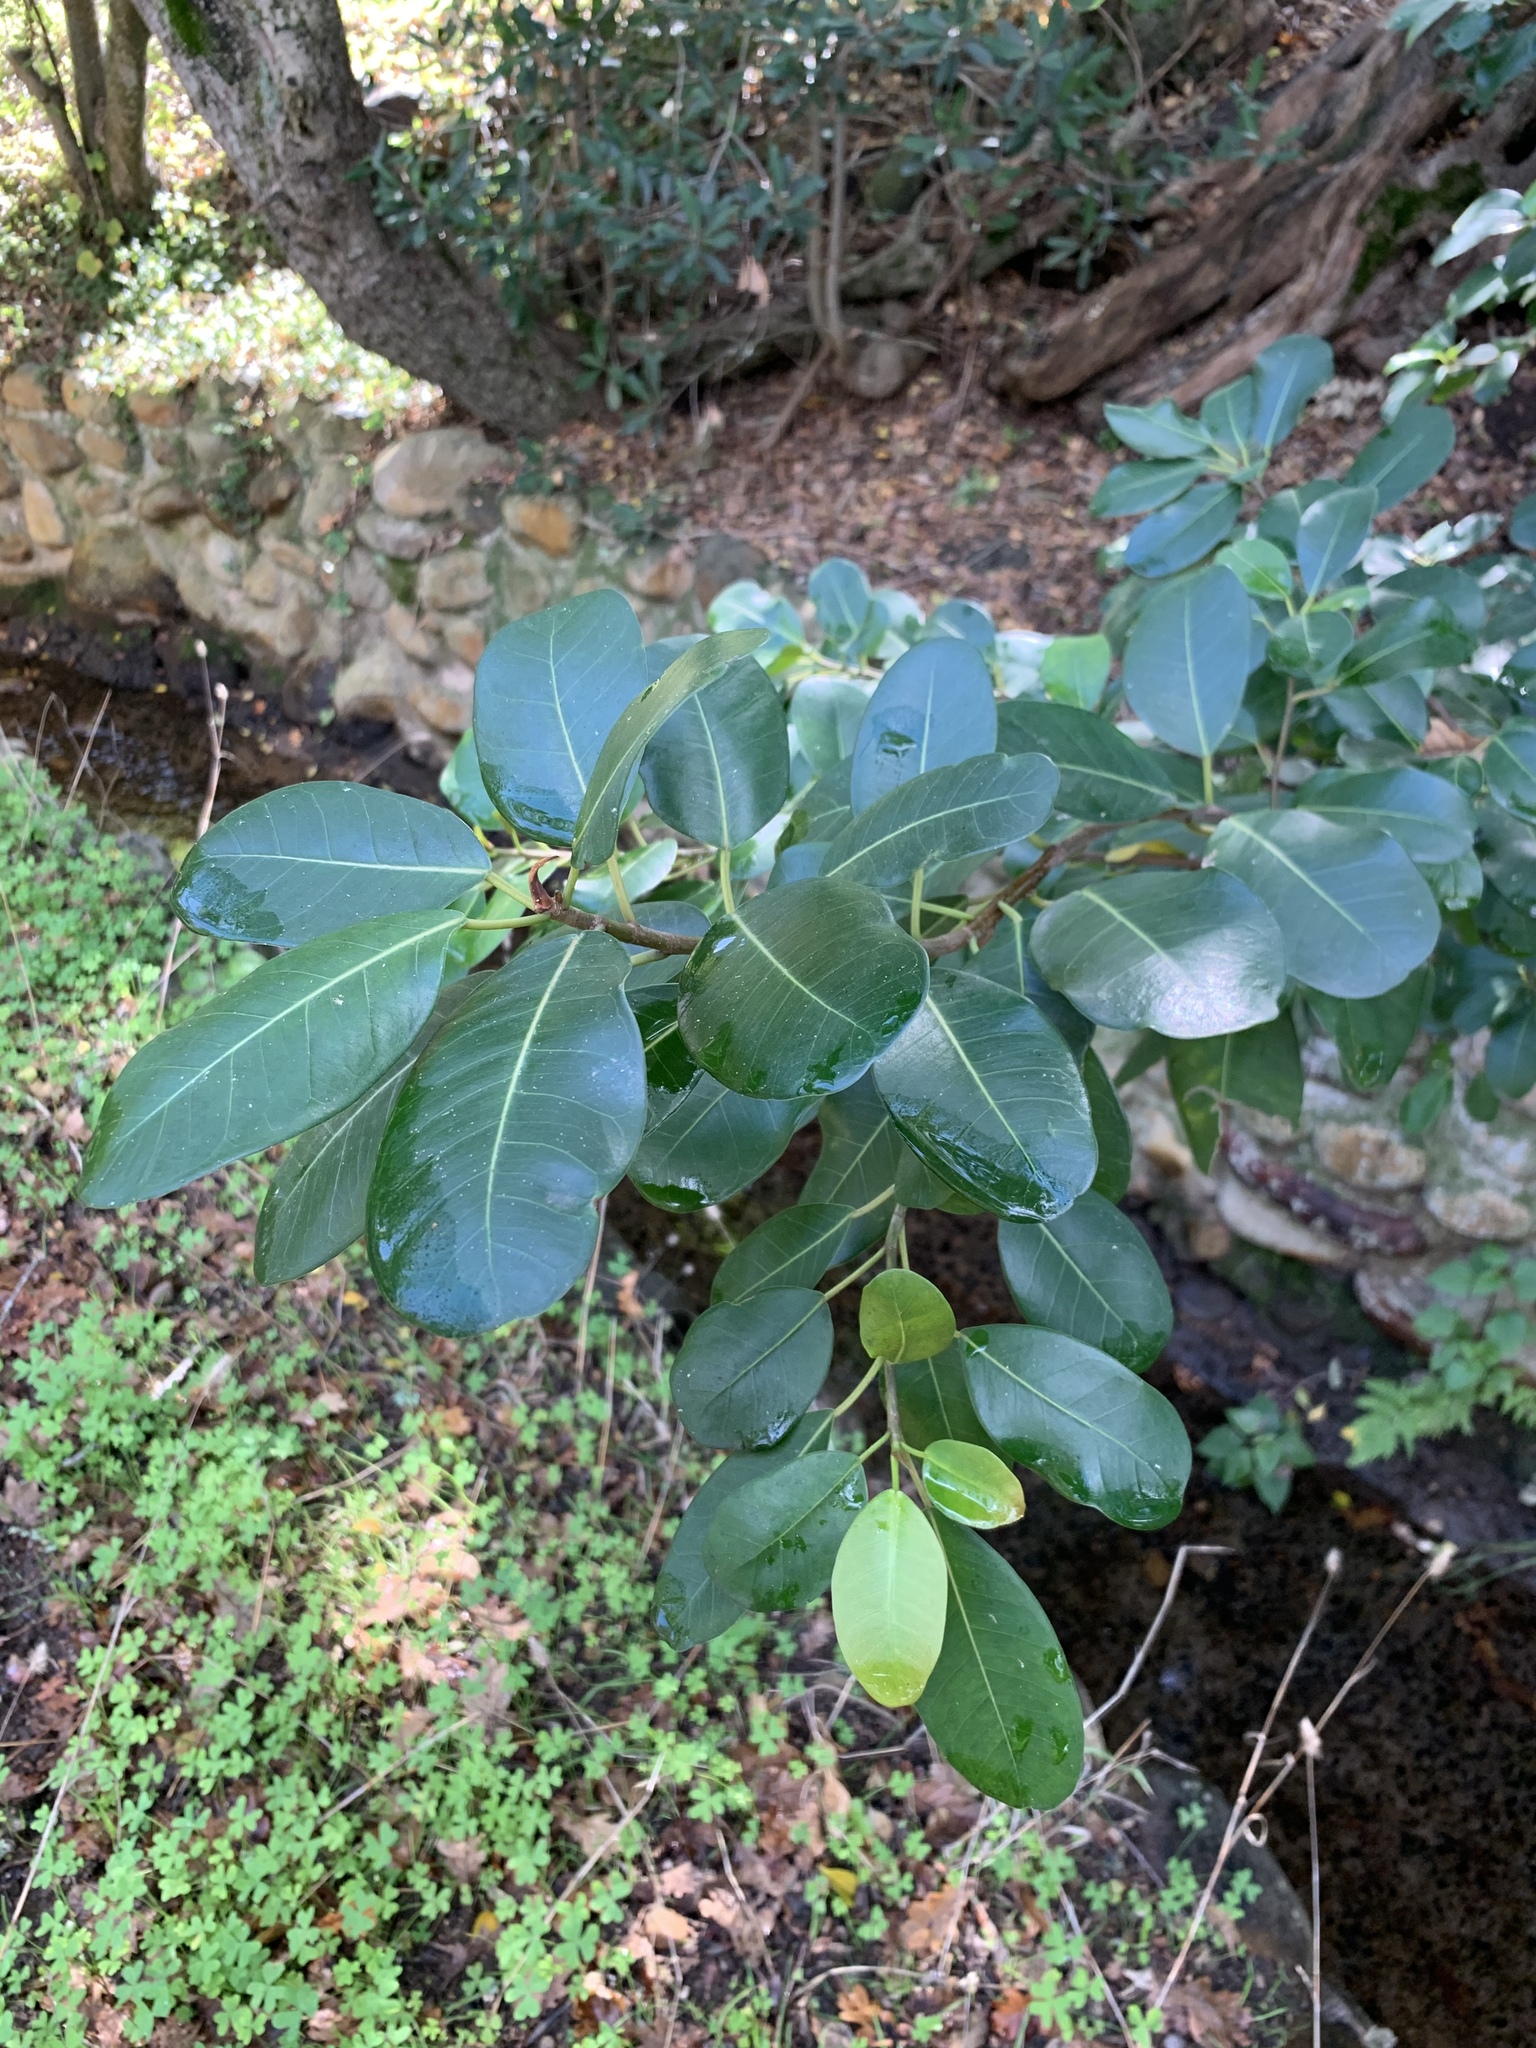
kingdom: Plantae
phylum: Tracheophyta
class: Magnoliopsida
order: Rosales
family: Moraceae
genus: Ficus
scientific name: Ficus thonningii
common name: Fig
